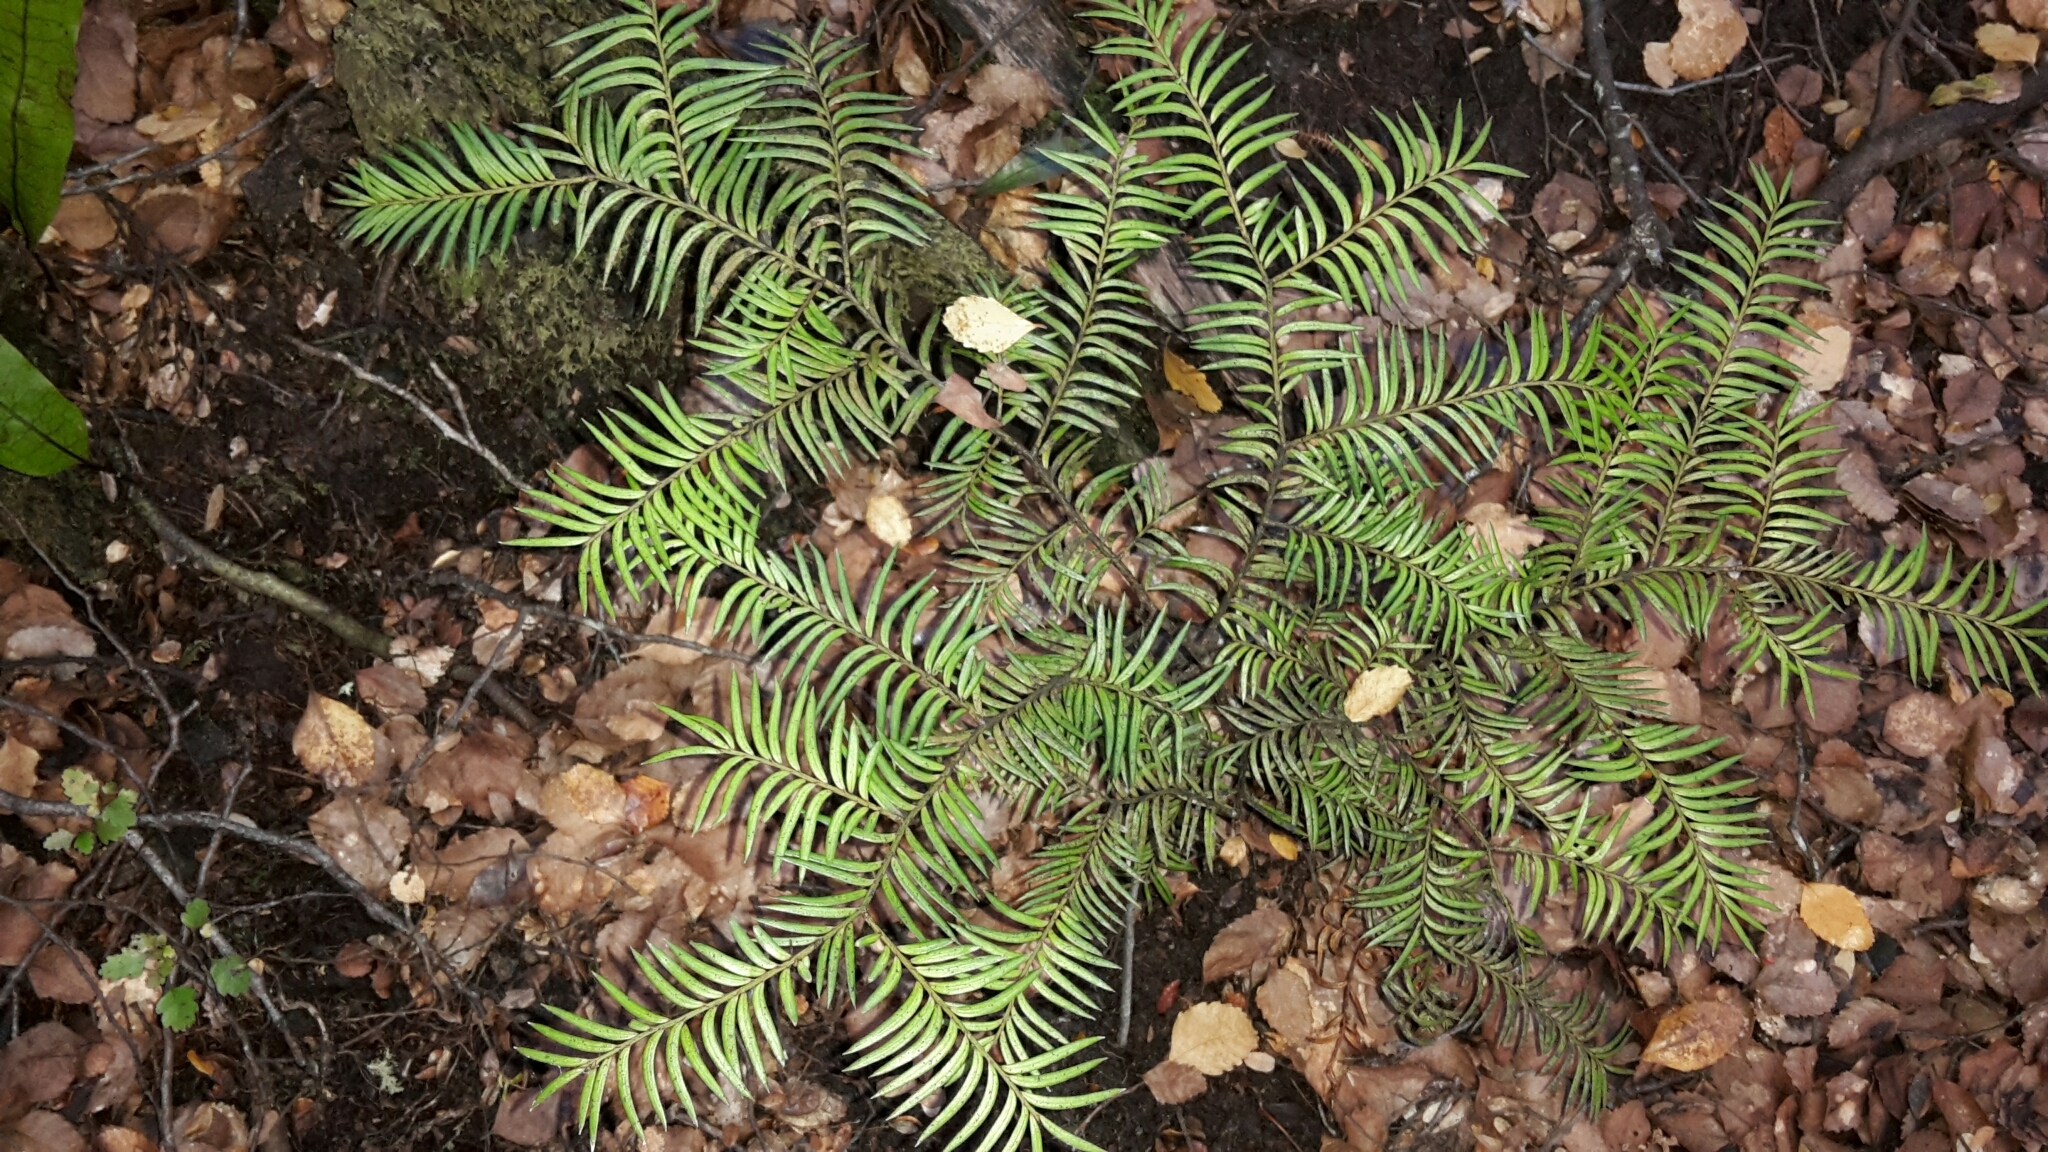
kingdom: Plantae
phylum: Tracheophyta
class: Pinopsida
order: Pinales
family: Podocarpaceae
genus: Prumnopitys
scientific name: Prumnopitys ferruginea
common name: Brown pine
